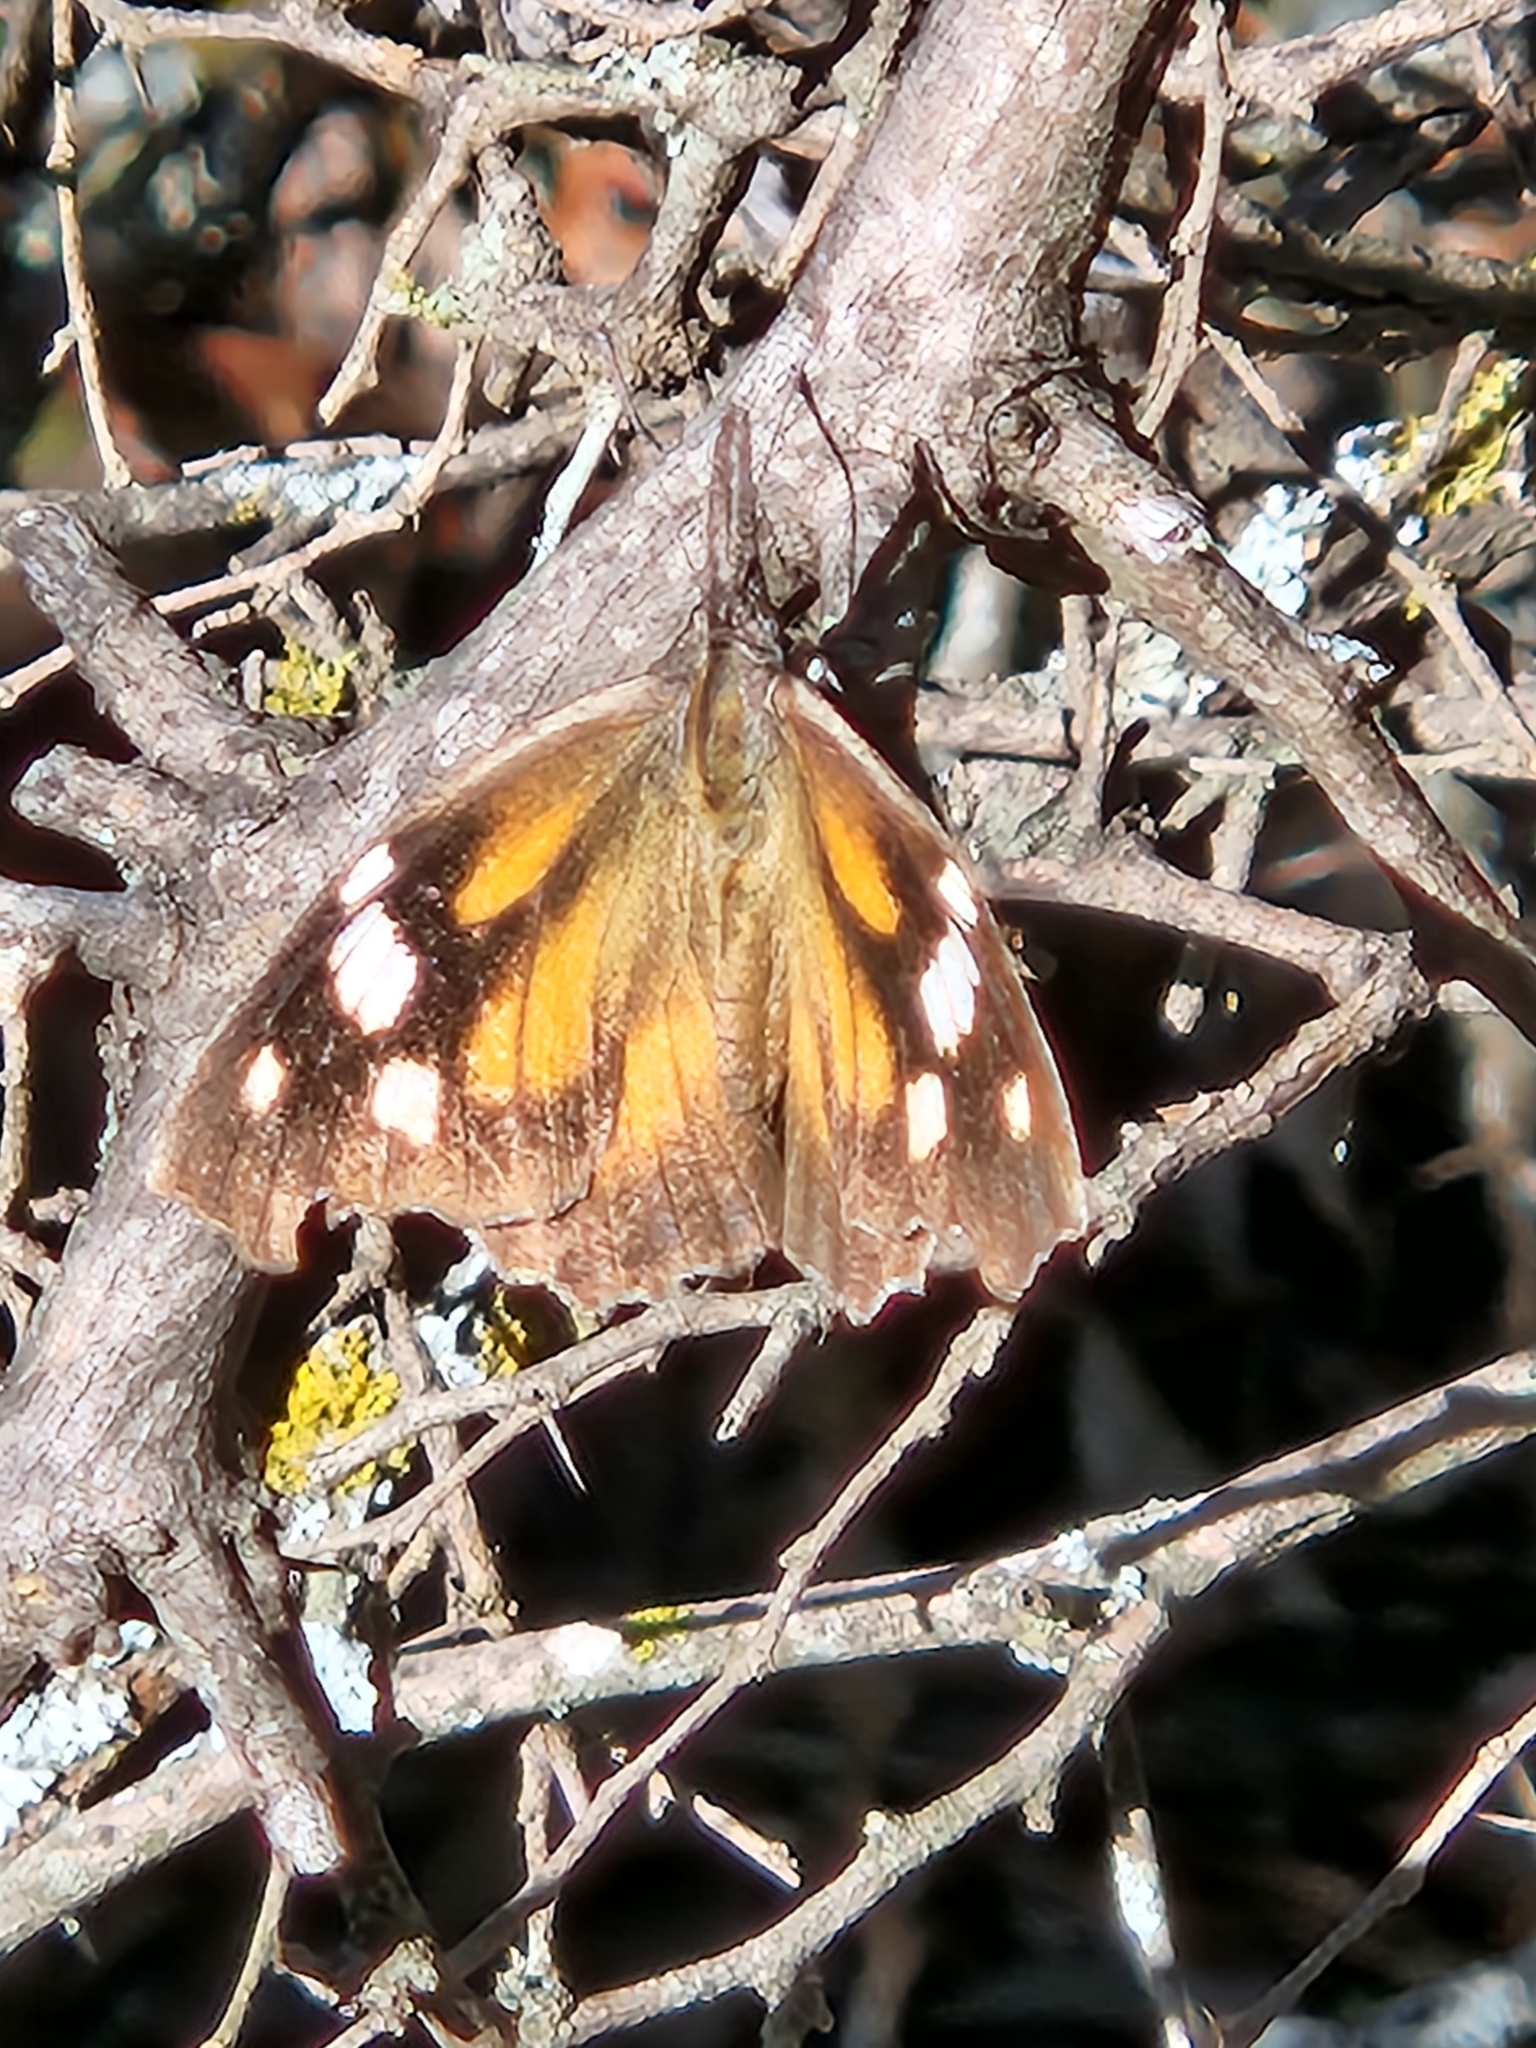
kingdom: Animalia
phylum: Arthropoda
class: Insecta
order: Lepidoptera
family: Nymphalidae
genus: Libytheana
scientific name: Libytheana carinenta
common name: American snout
